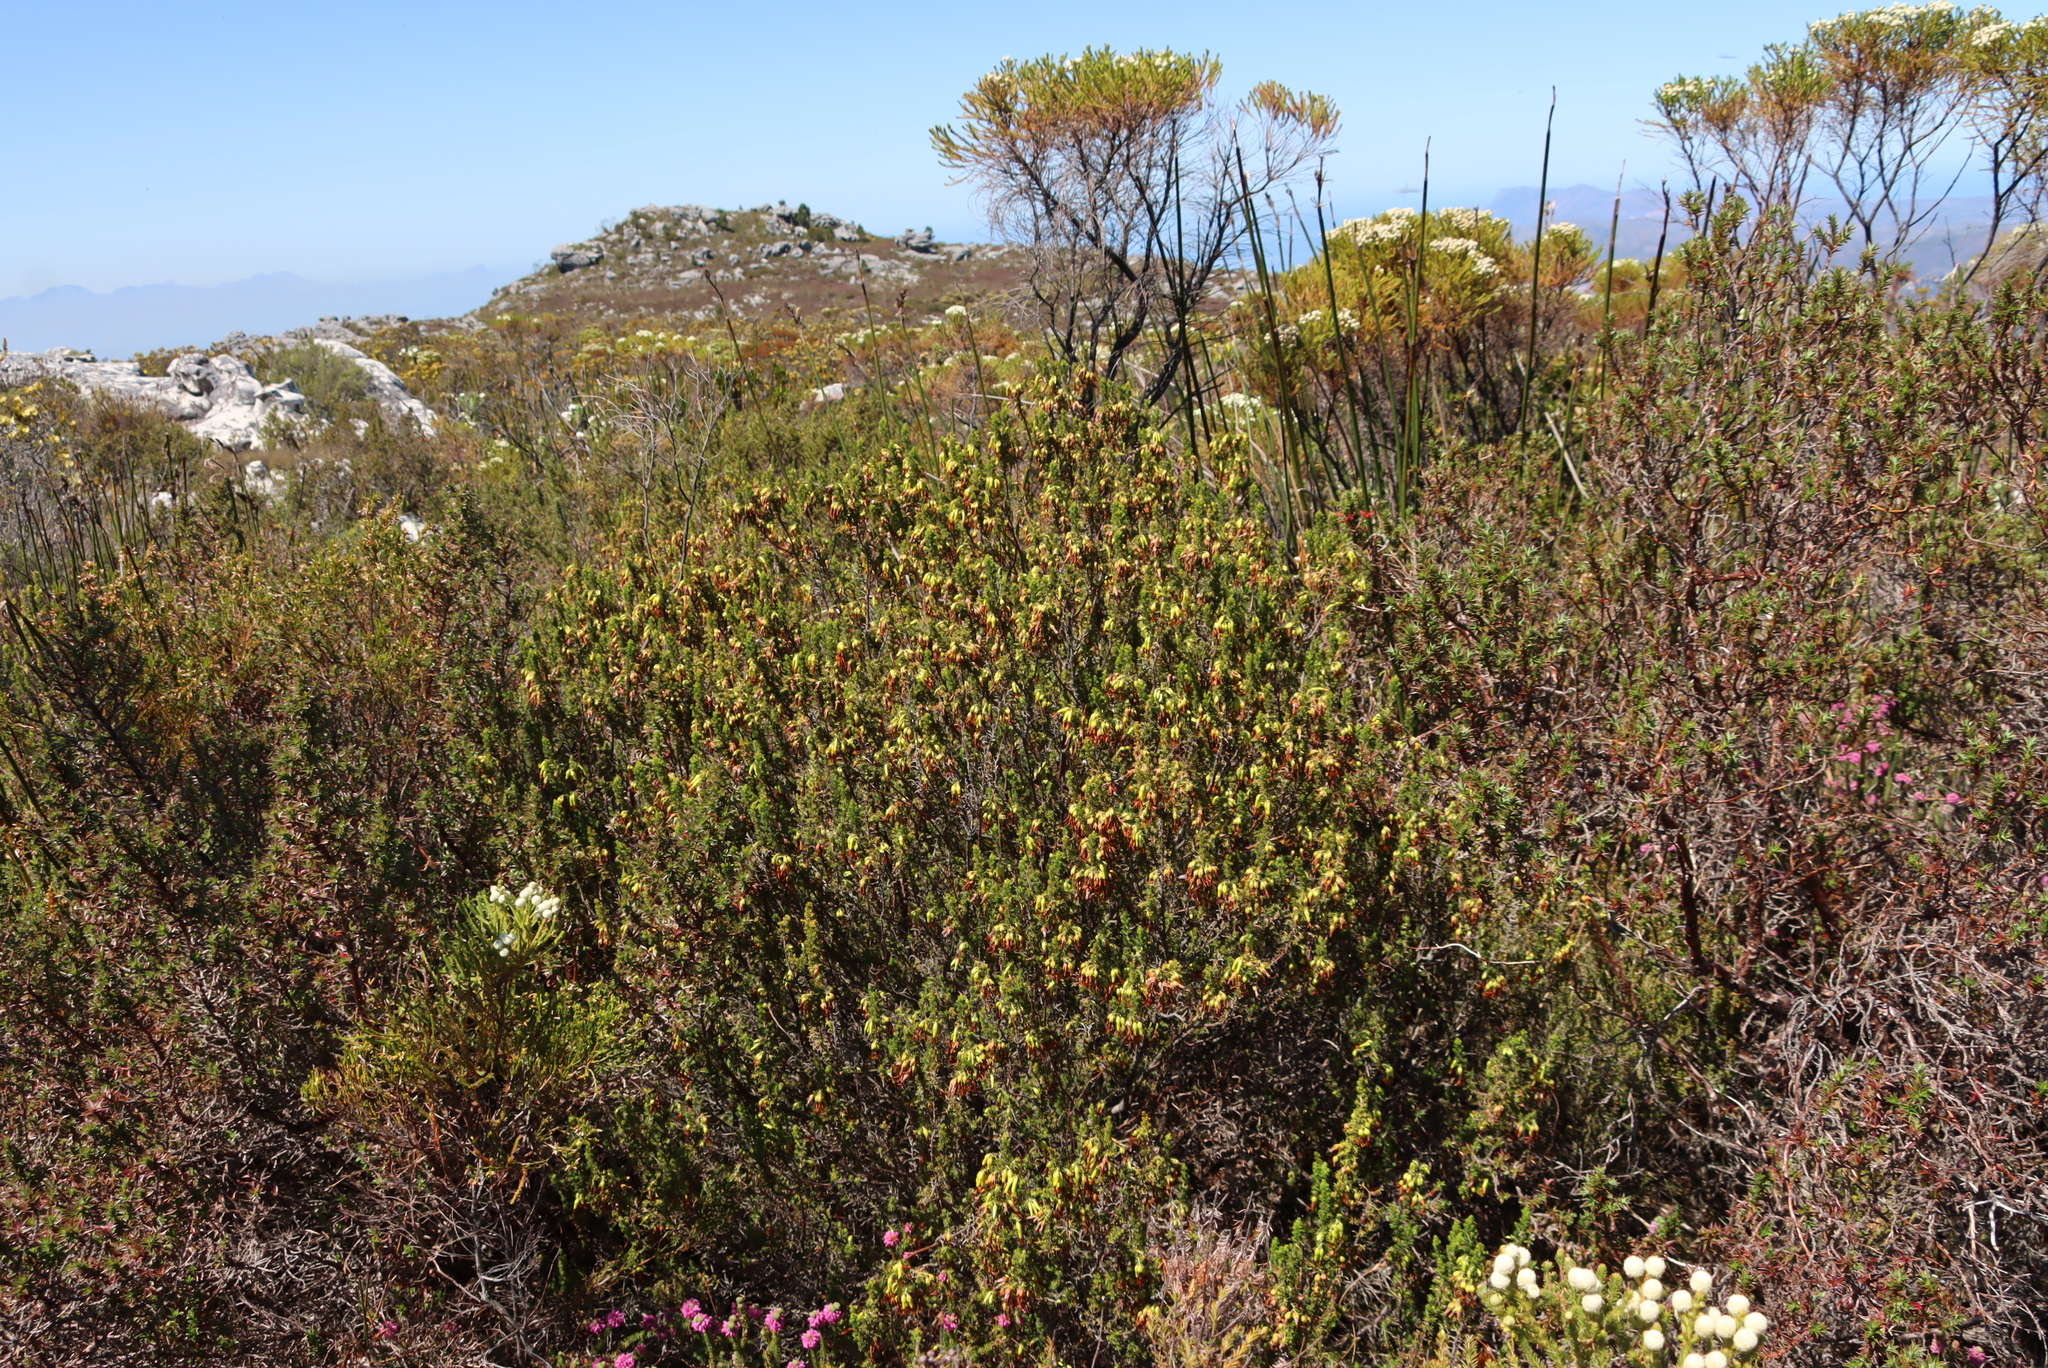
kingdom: Plantae
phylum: Tracheophyta
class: Magnoliopsida
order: Ericales
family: Ericaceae
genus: Erica
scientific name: Erica coccinea
